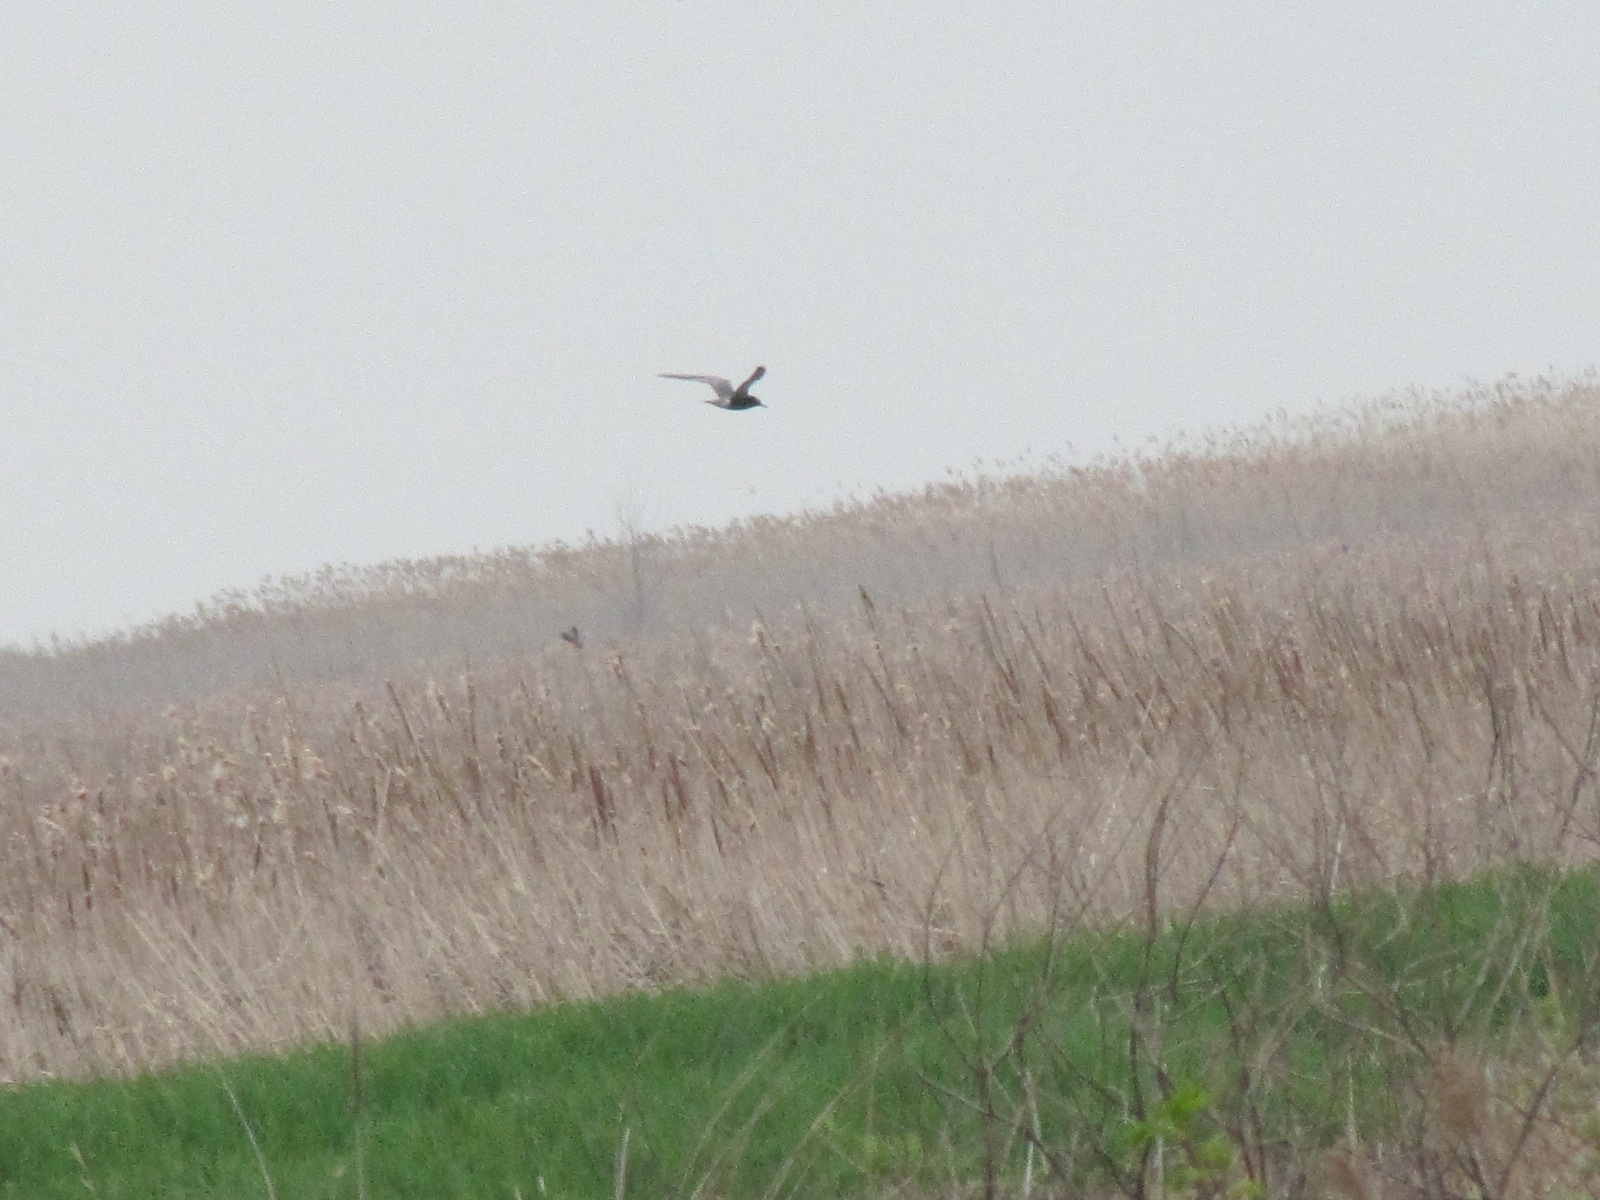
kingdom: Animalia
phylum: Chordata
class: Aves
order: Charadriiformes
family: Laridae
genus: Chlidonias
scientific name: Chlidonias niger
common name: Black tern
